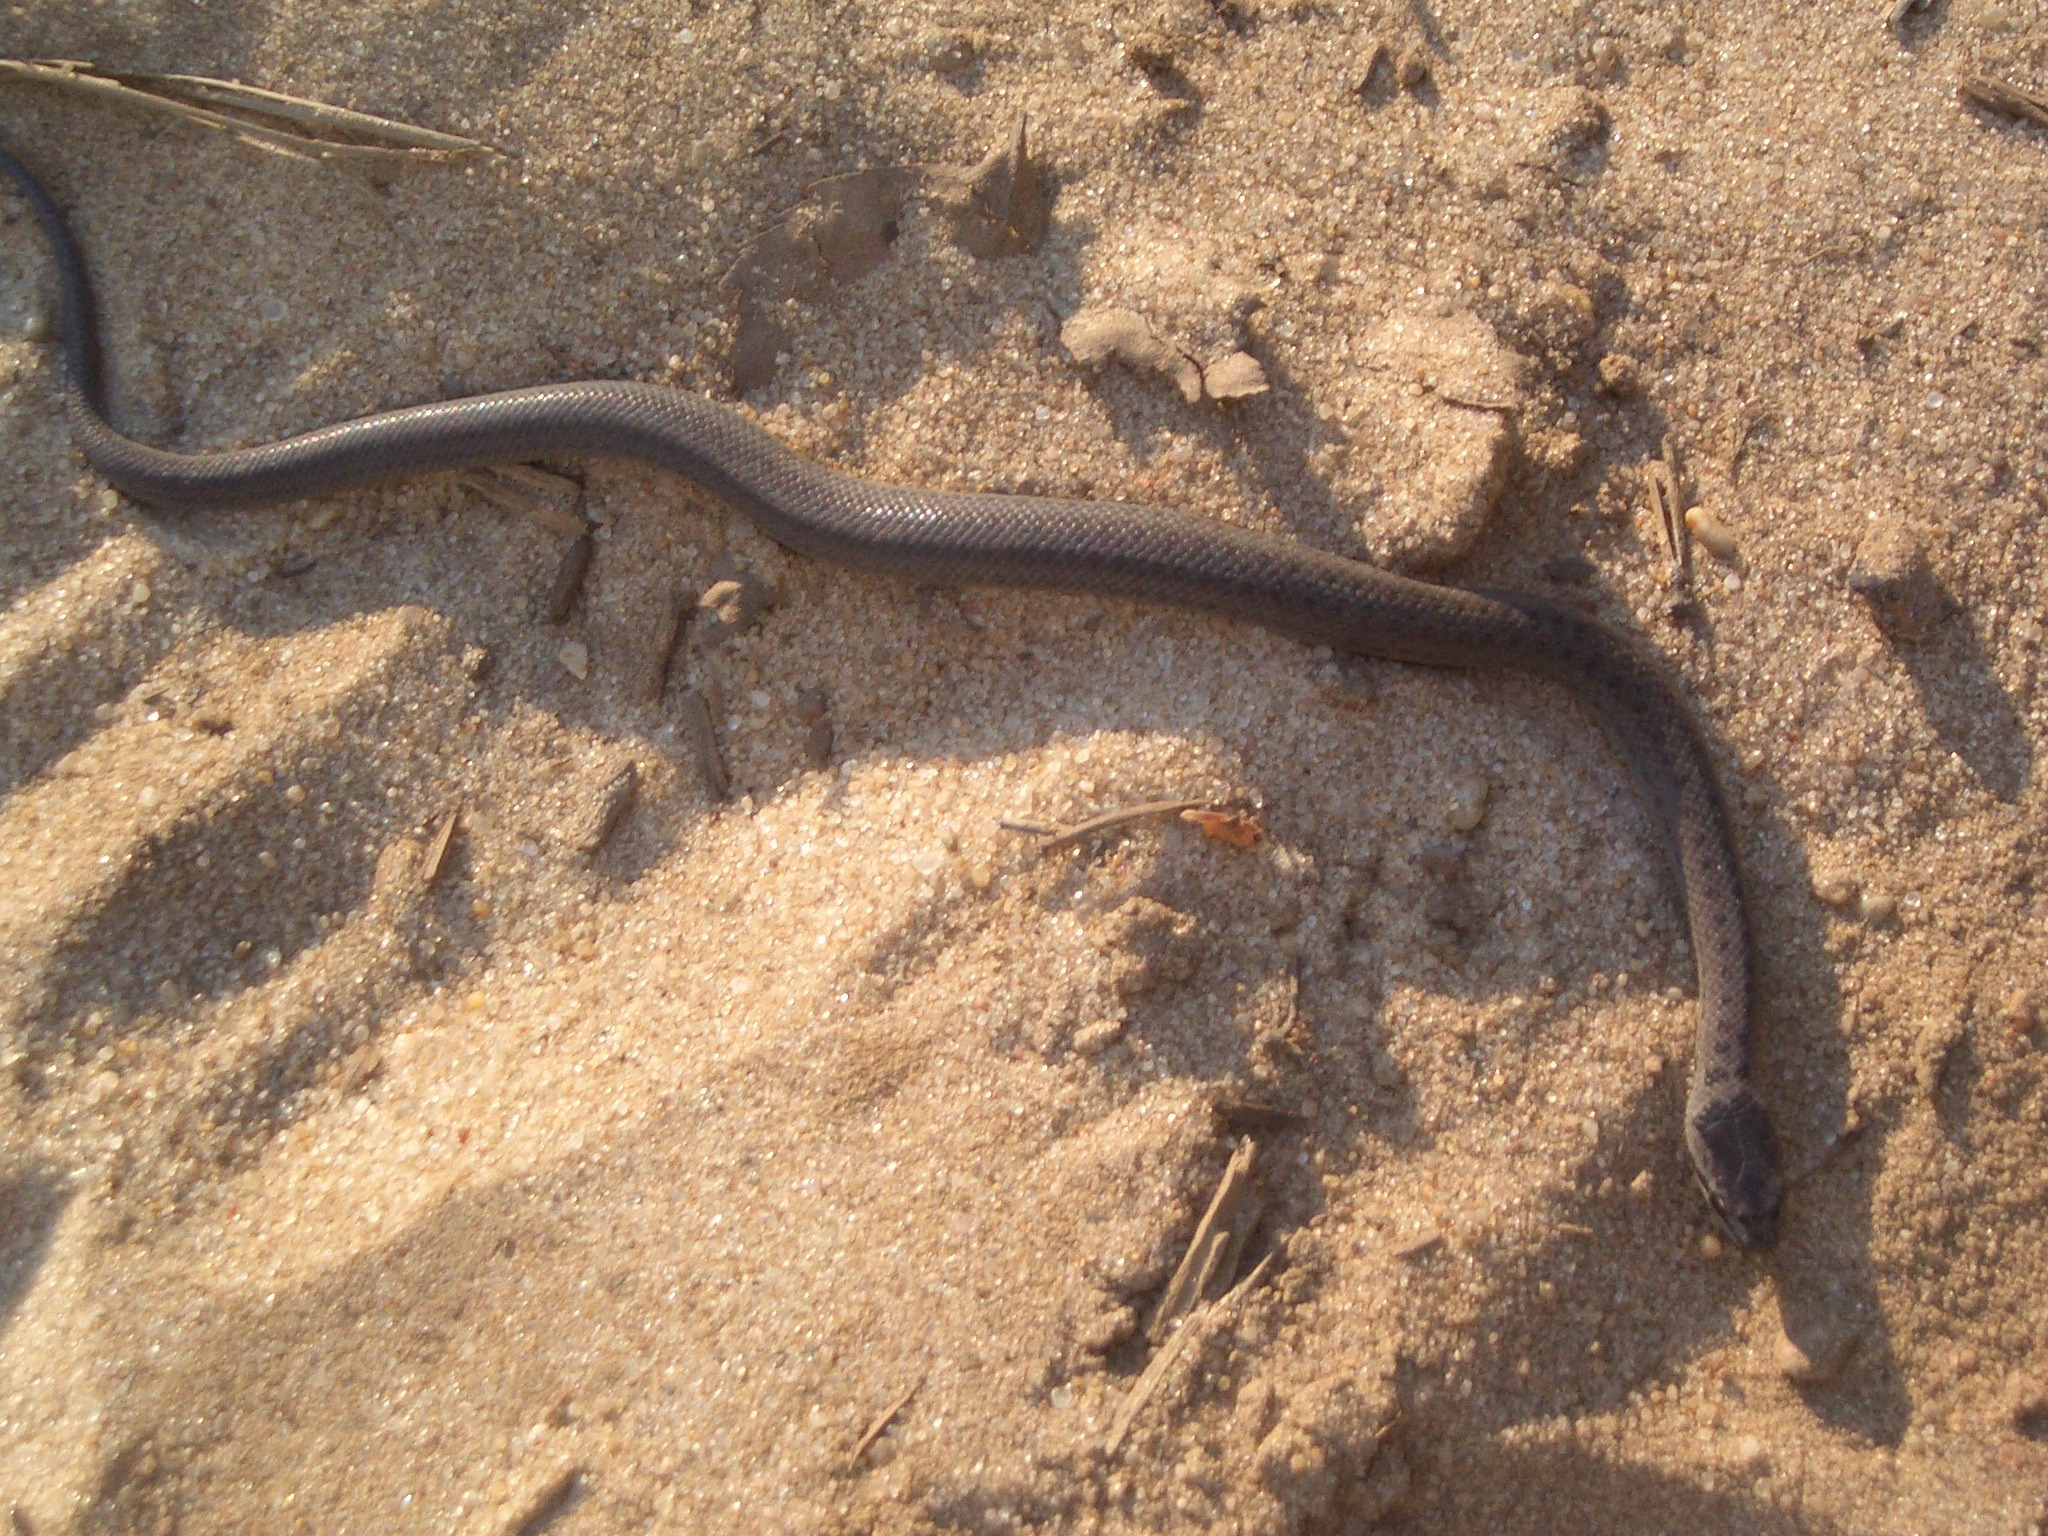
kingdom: Animalia
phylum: Chordata
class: Squamata
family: Colubridae
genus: Coronella
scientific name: Coronella austriaca
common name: Smooth snake
